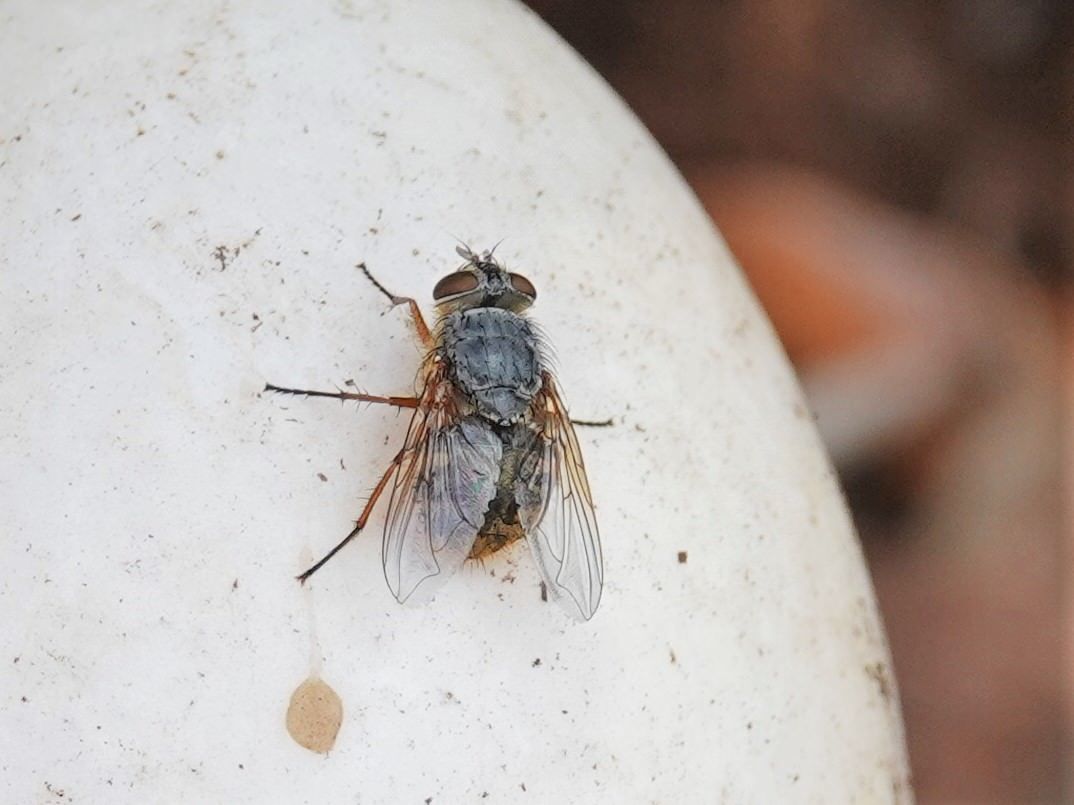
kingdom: Animalia
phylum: Arthropoda
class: Insecta
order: Diptera
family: Calliphoridae
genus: Calliphora
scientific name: Calliphora hilli
